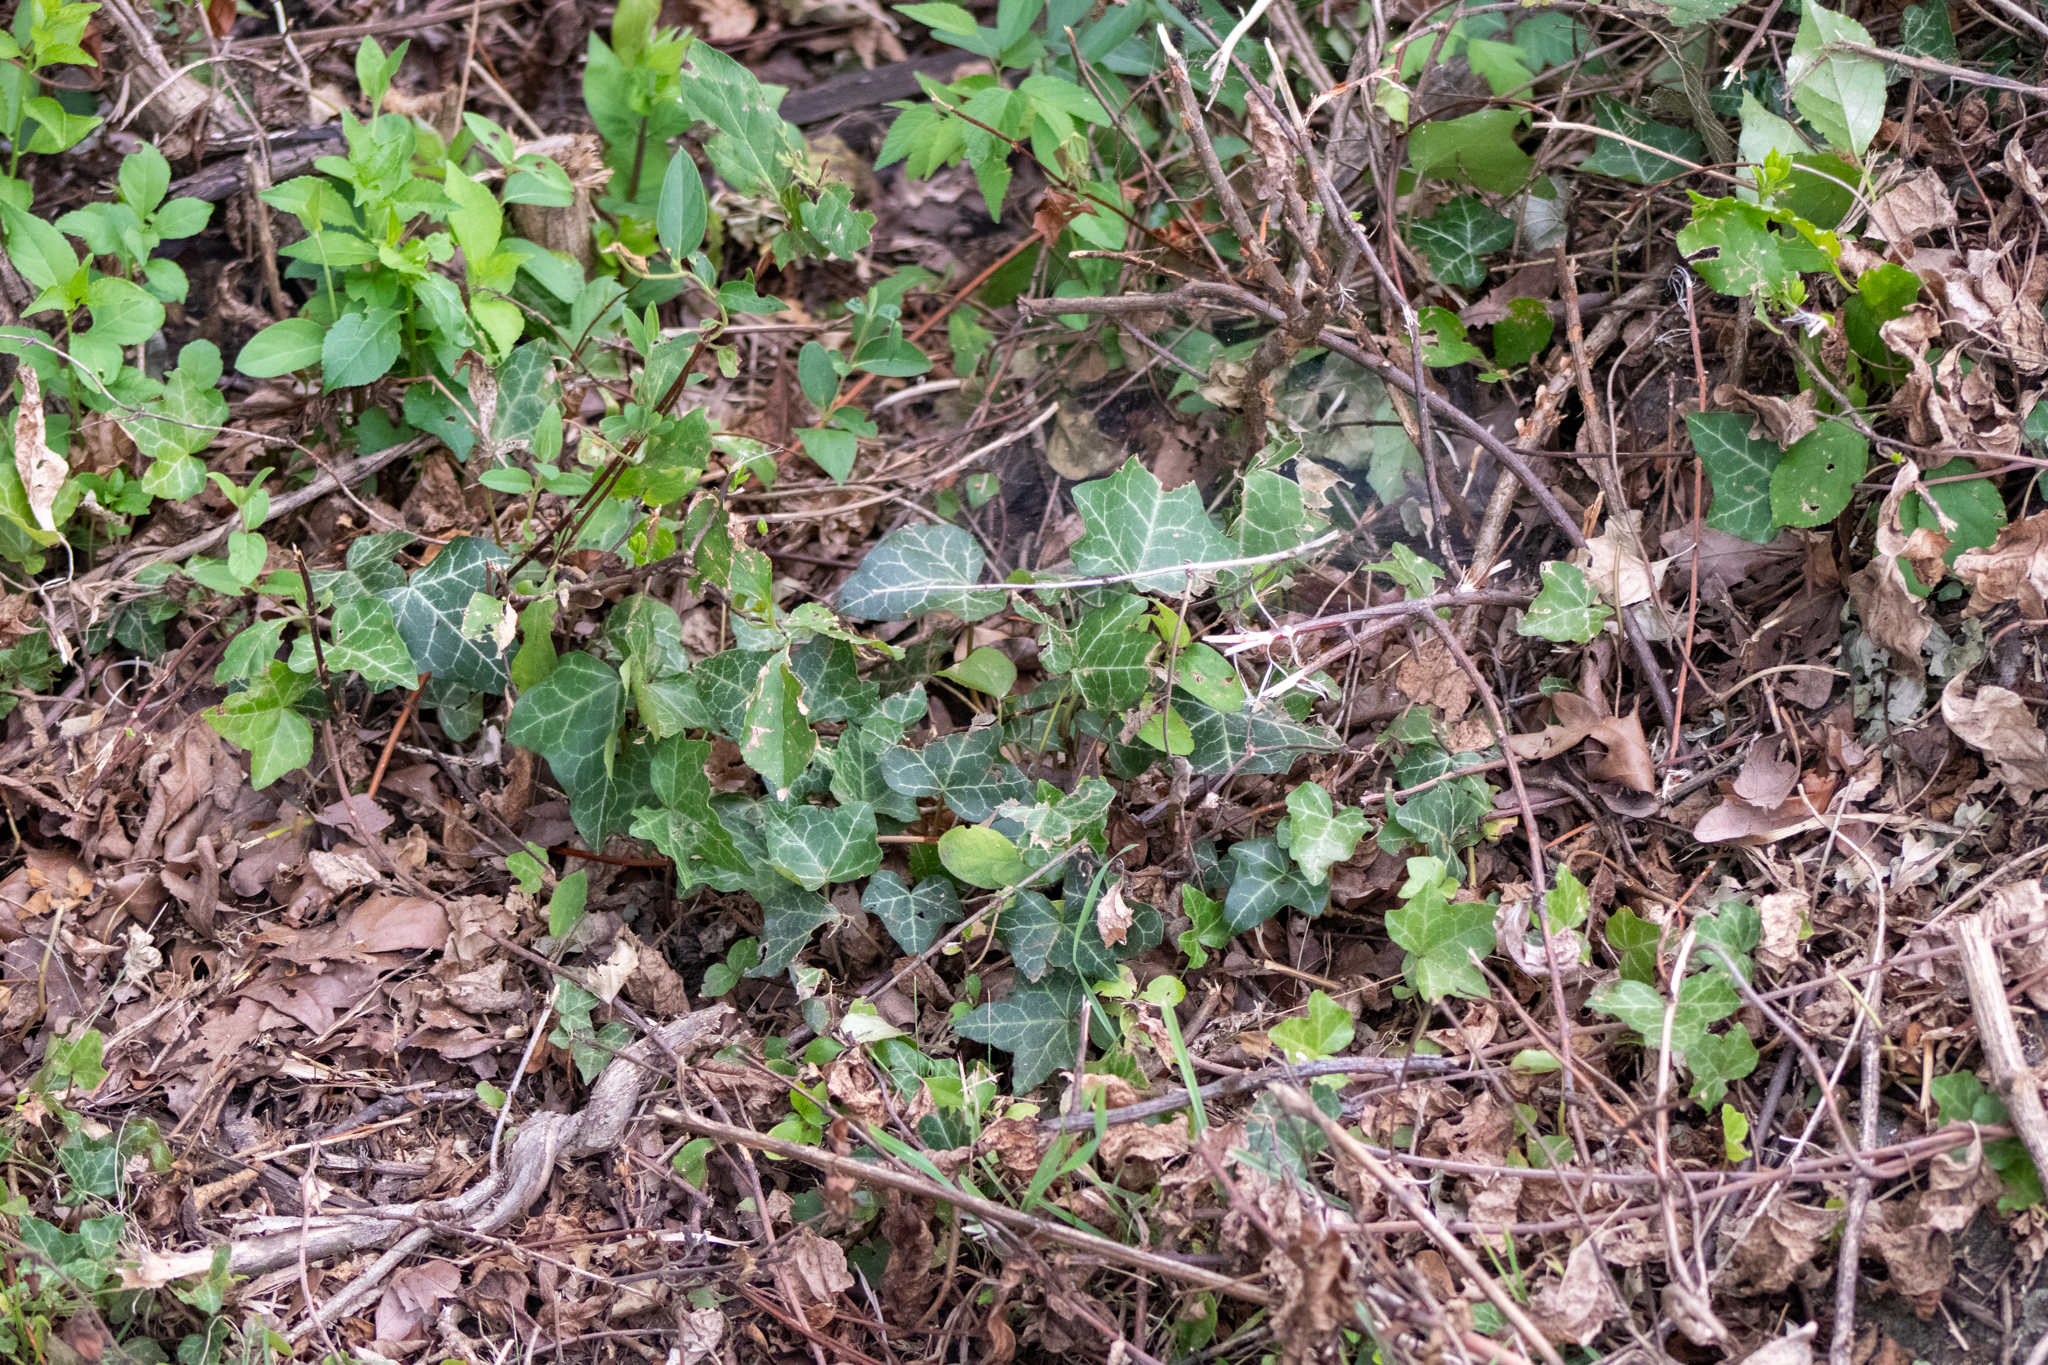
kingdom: Plantae
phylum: Tracheophyta
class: Magnoliopsida
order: Apiales
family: Araliaceae
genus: Hedera
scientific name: Hedera helix
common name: Ivy
